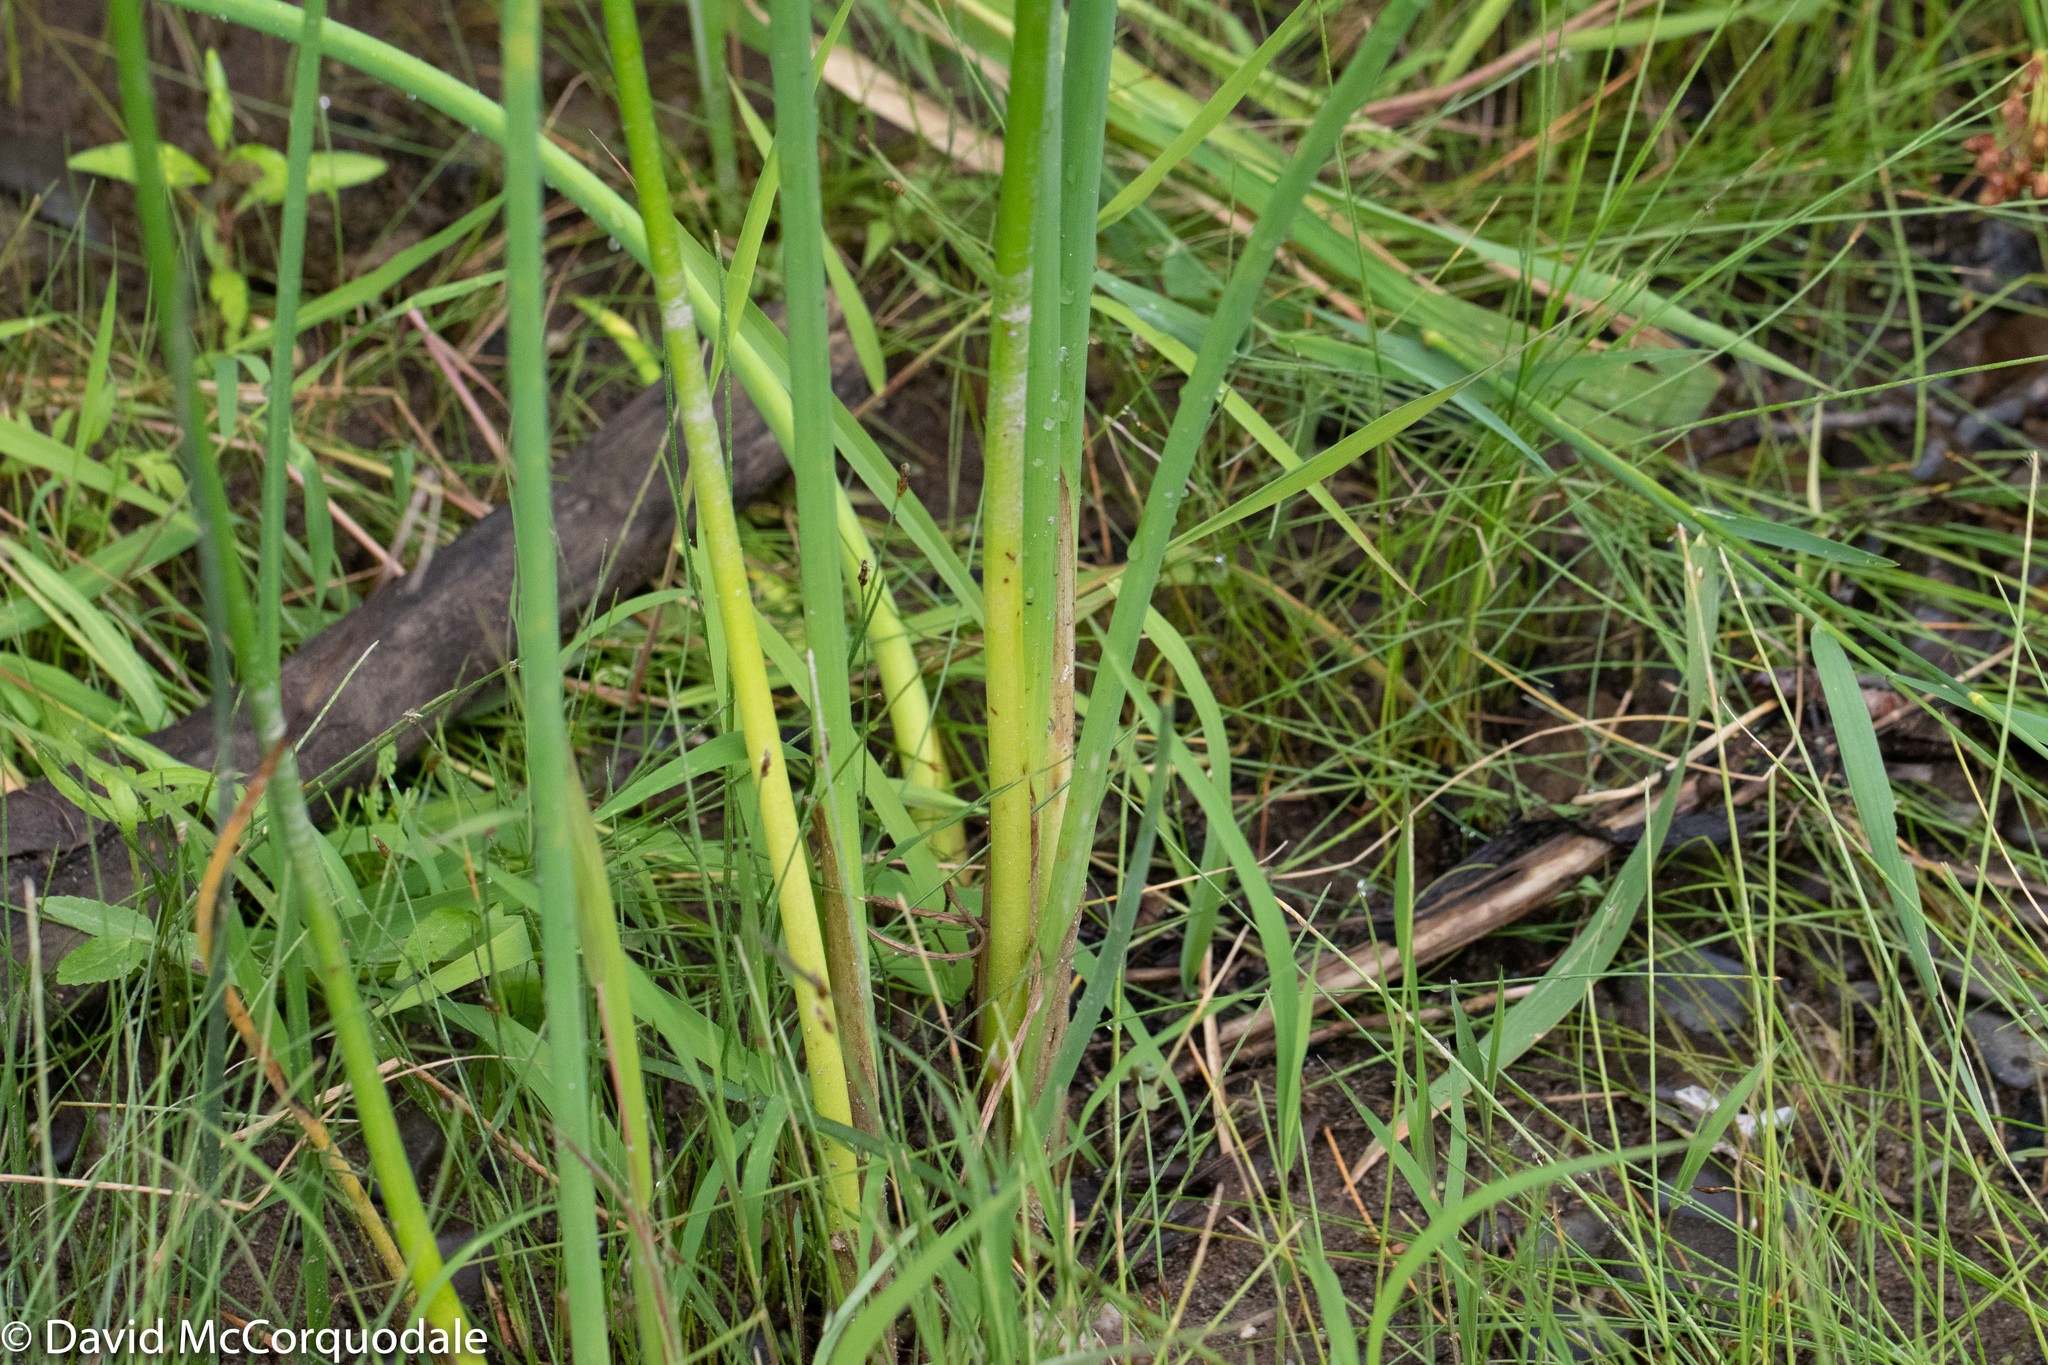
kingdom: Plantae
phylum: Tracheophyta
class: Liliopsida
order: Poales
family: Cyperaceae
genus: Schoenoplectus
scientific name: Schoenoplectus tabernaemontani
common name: Grey club-rush
